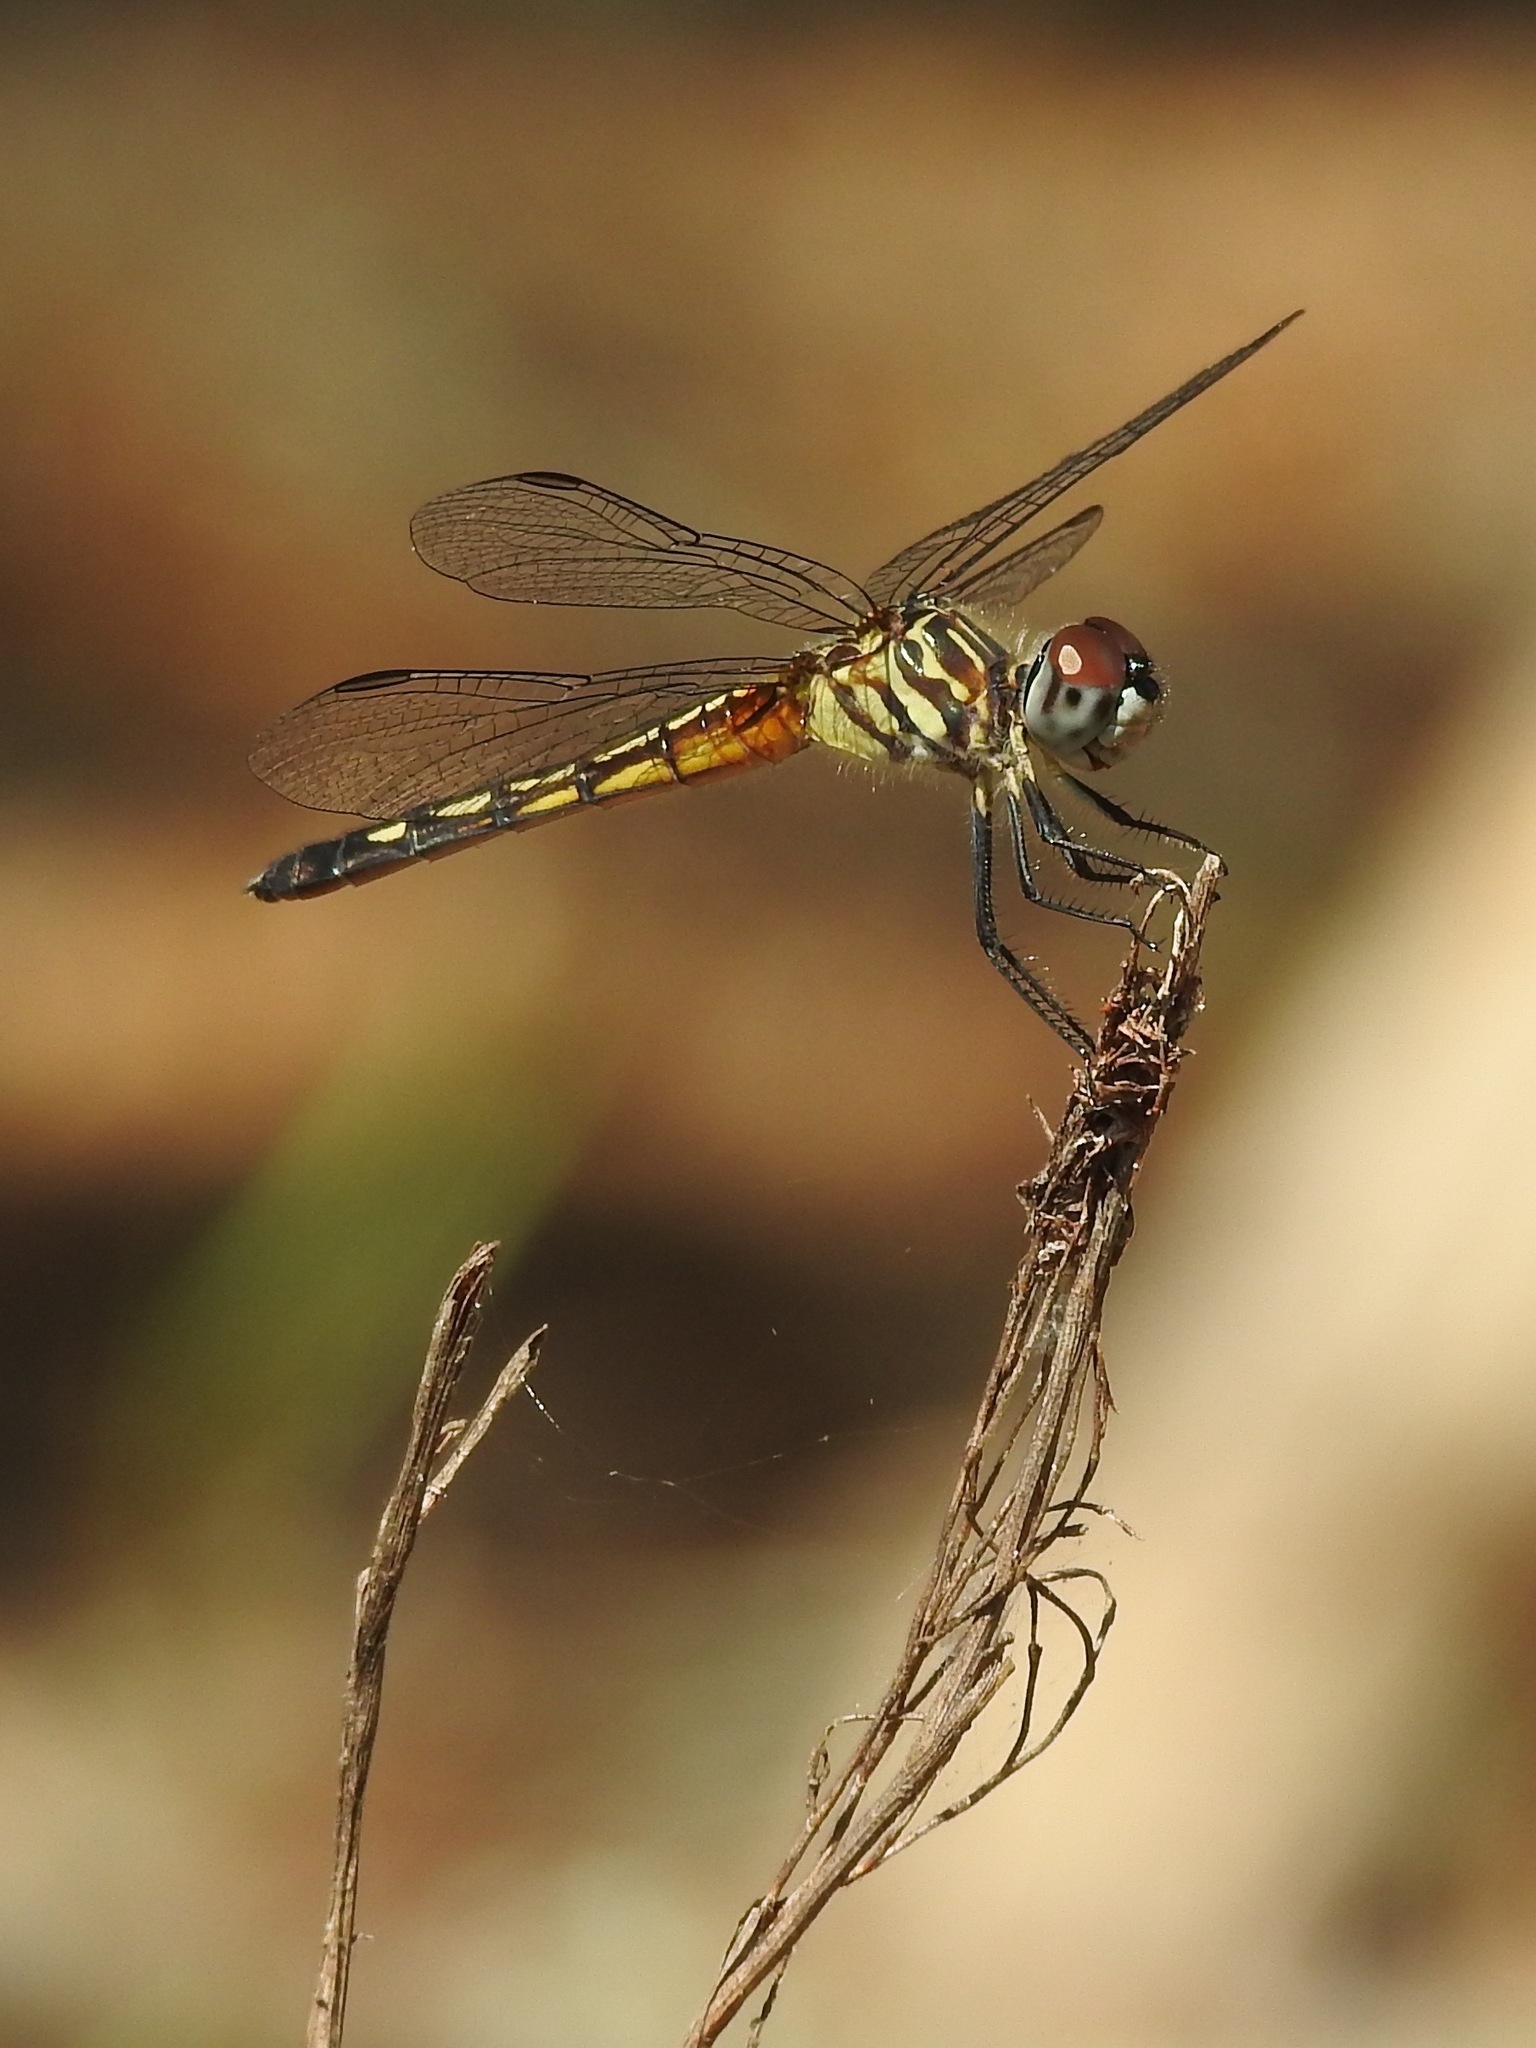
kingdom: Animalia
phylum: Arthropoda
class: Insecta
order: Odonata
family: Libellulidae
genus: Pachydiplax
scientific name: Pachydiplax longipennis
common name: Blue dasher
